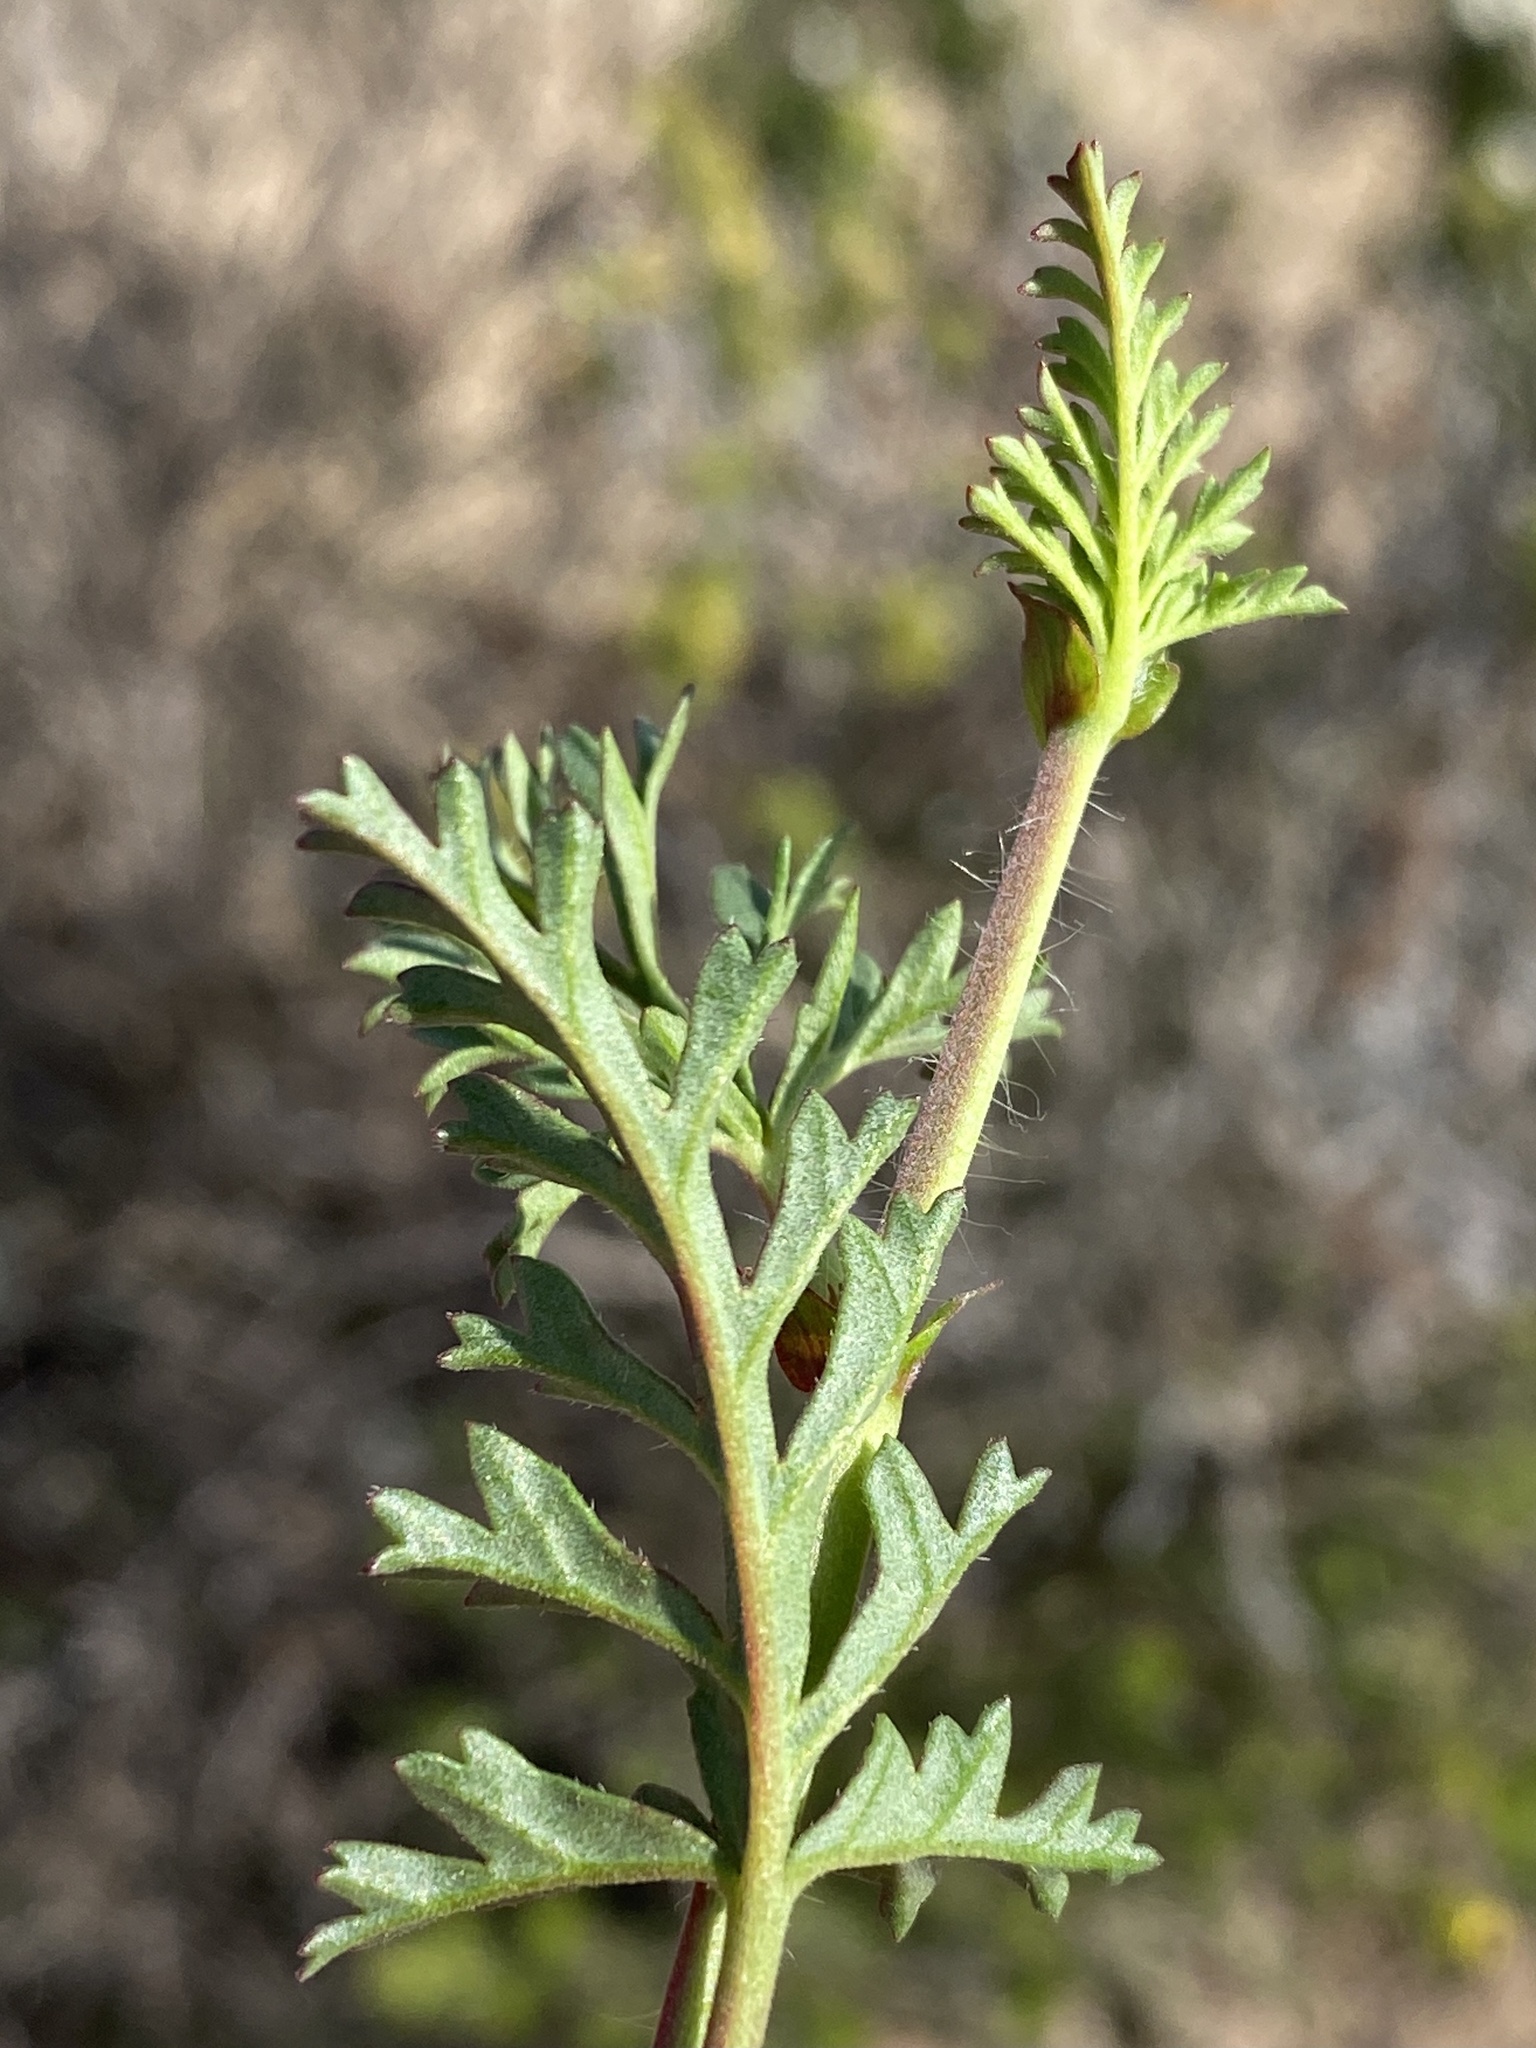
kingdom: Plantae
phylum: Tracheophyta
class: Magnoliopsida
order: Geraniales
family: Geraniaceae
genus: Pelargonium
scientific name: Pelargonium multicaule
